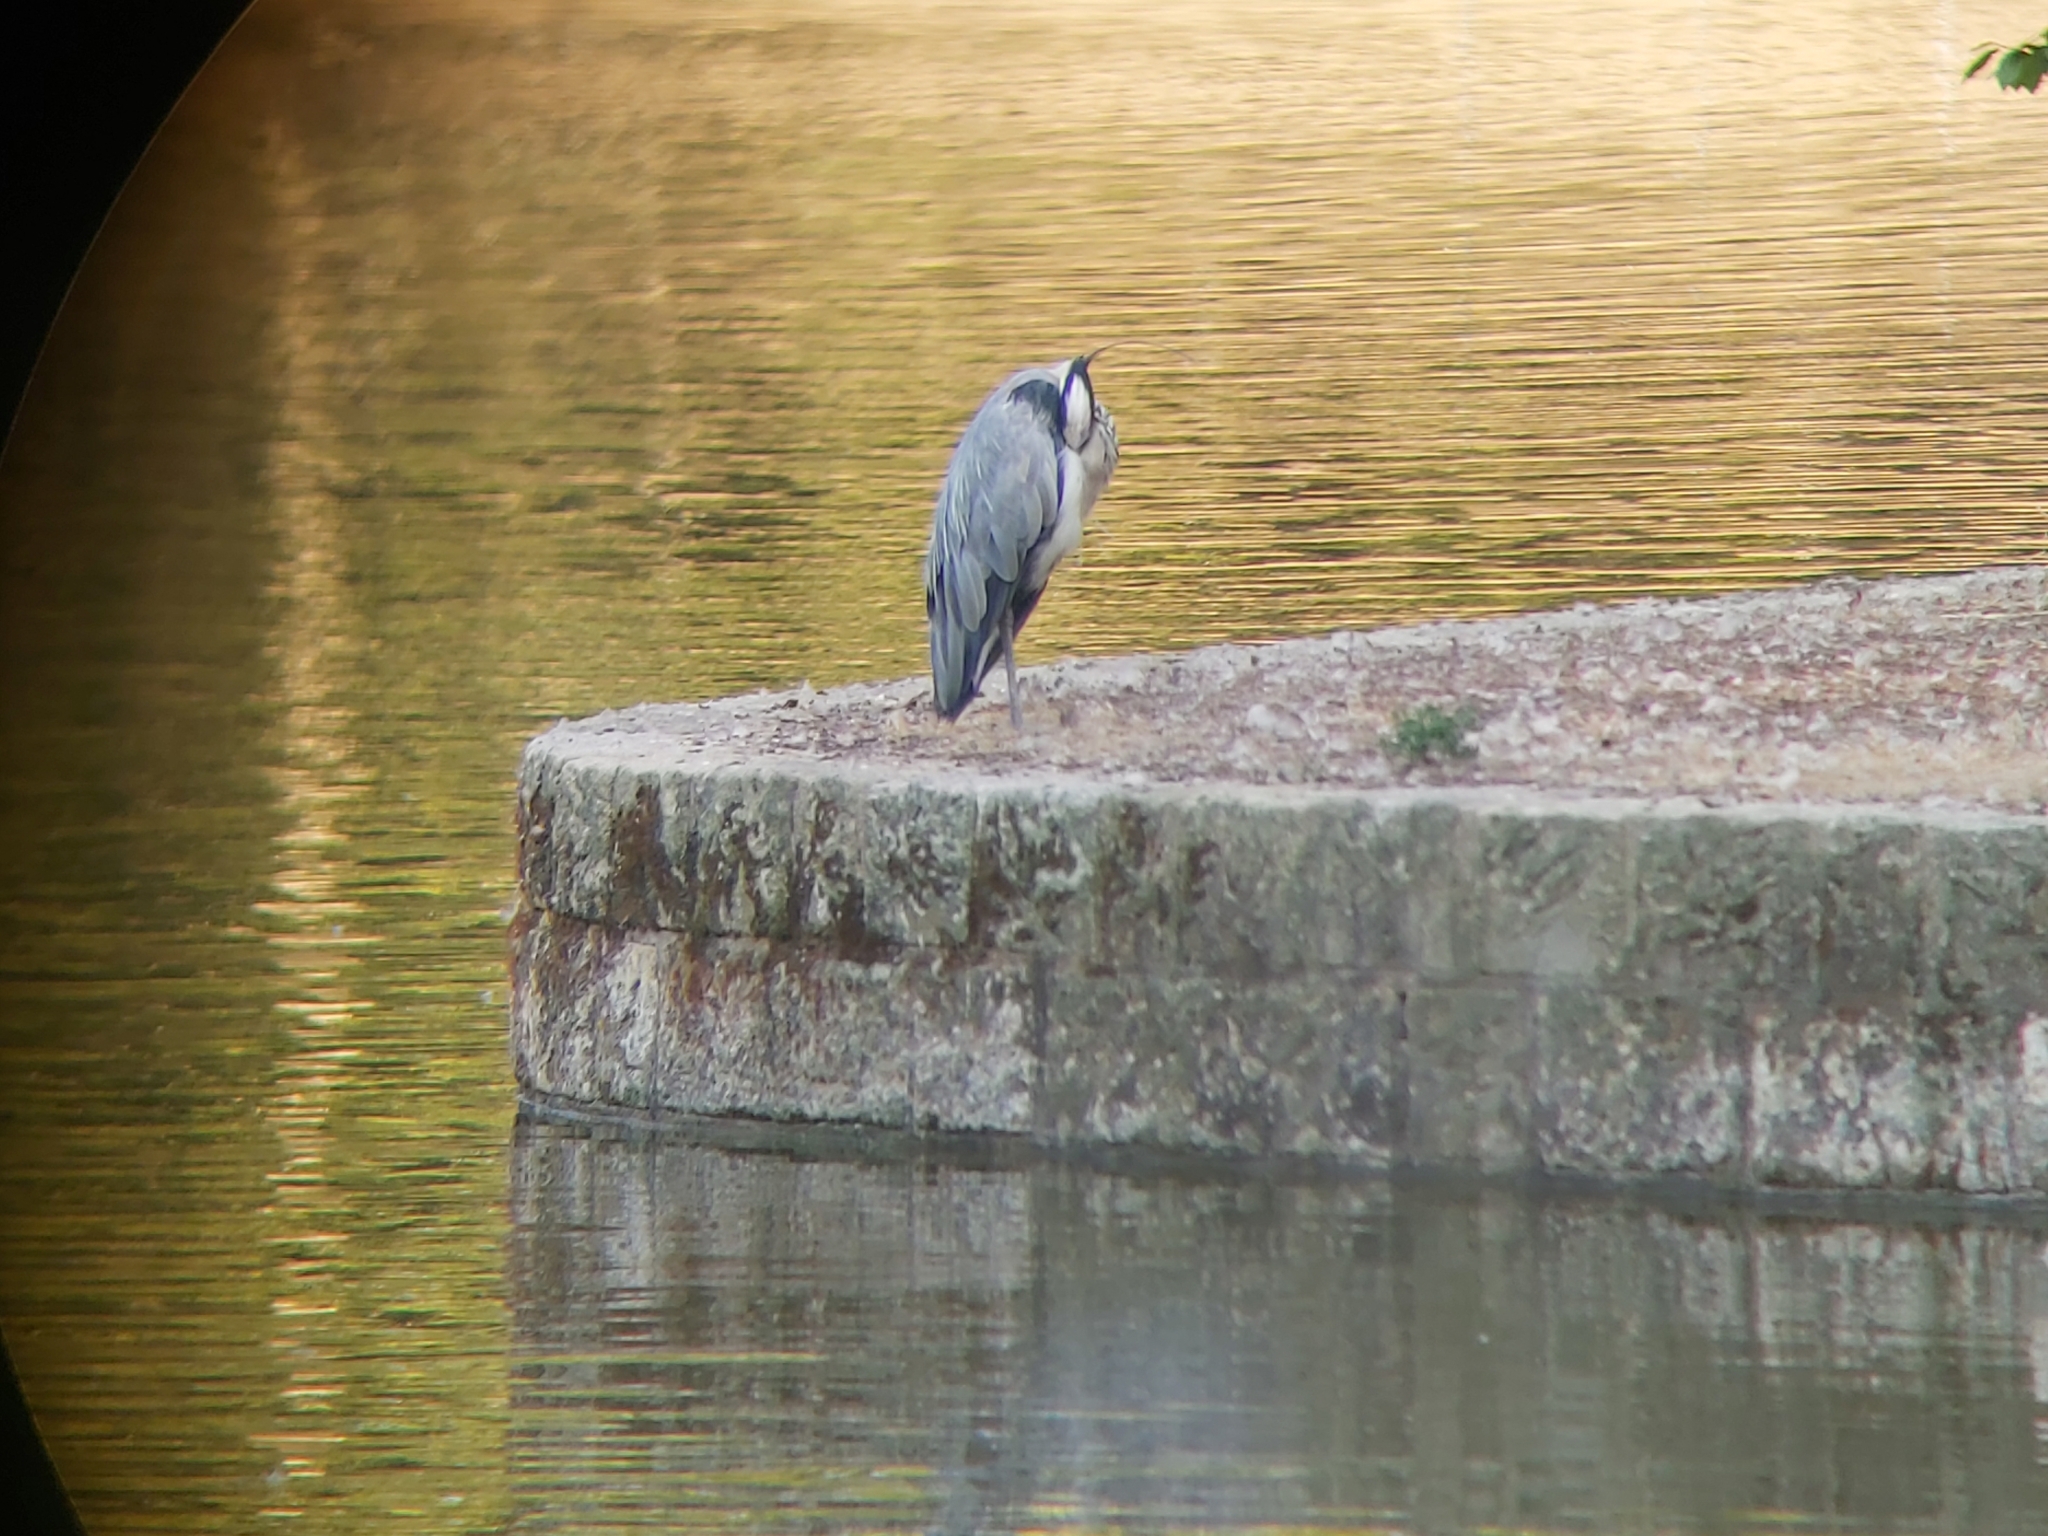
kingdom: Animalia
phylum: Chordata
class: Aves
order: Pelecaniformes
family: Ardeidae
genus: Ardea
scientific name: Ardea cinerea
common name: Grey heron
